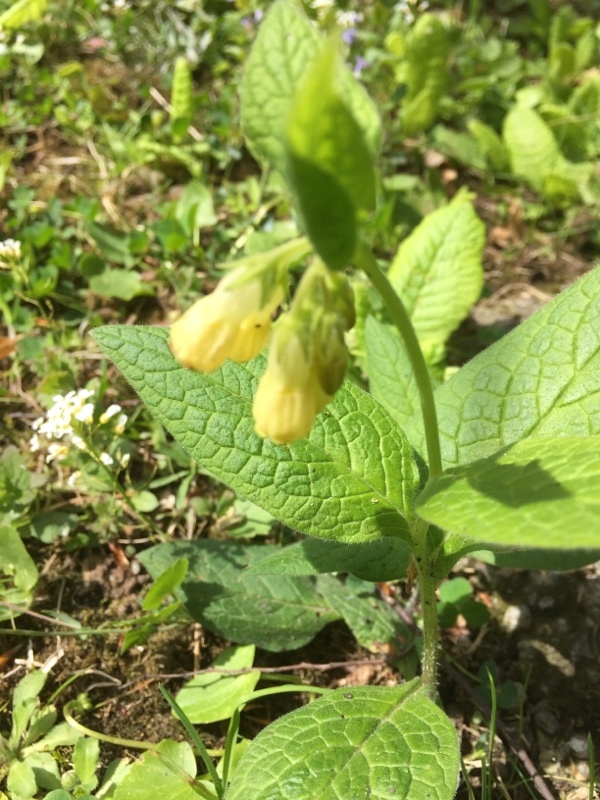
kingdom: Plantae
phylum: Tracheophyta
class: Magnoliopsida
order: Boraginales
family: Boraginaceae
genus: Symphytum
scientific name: Symphytum grandiflorum
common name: Creeping comfrey
